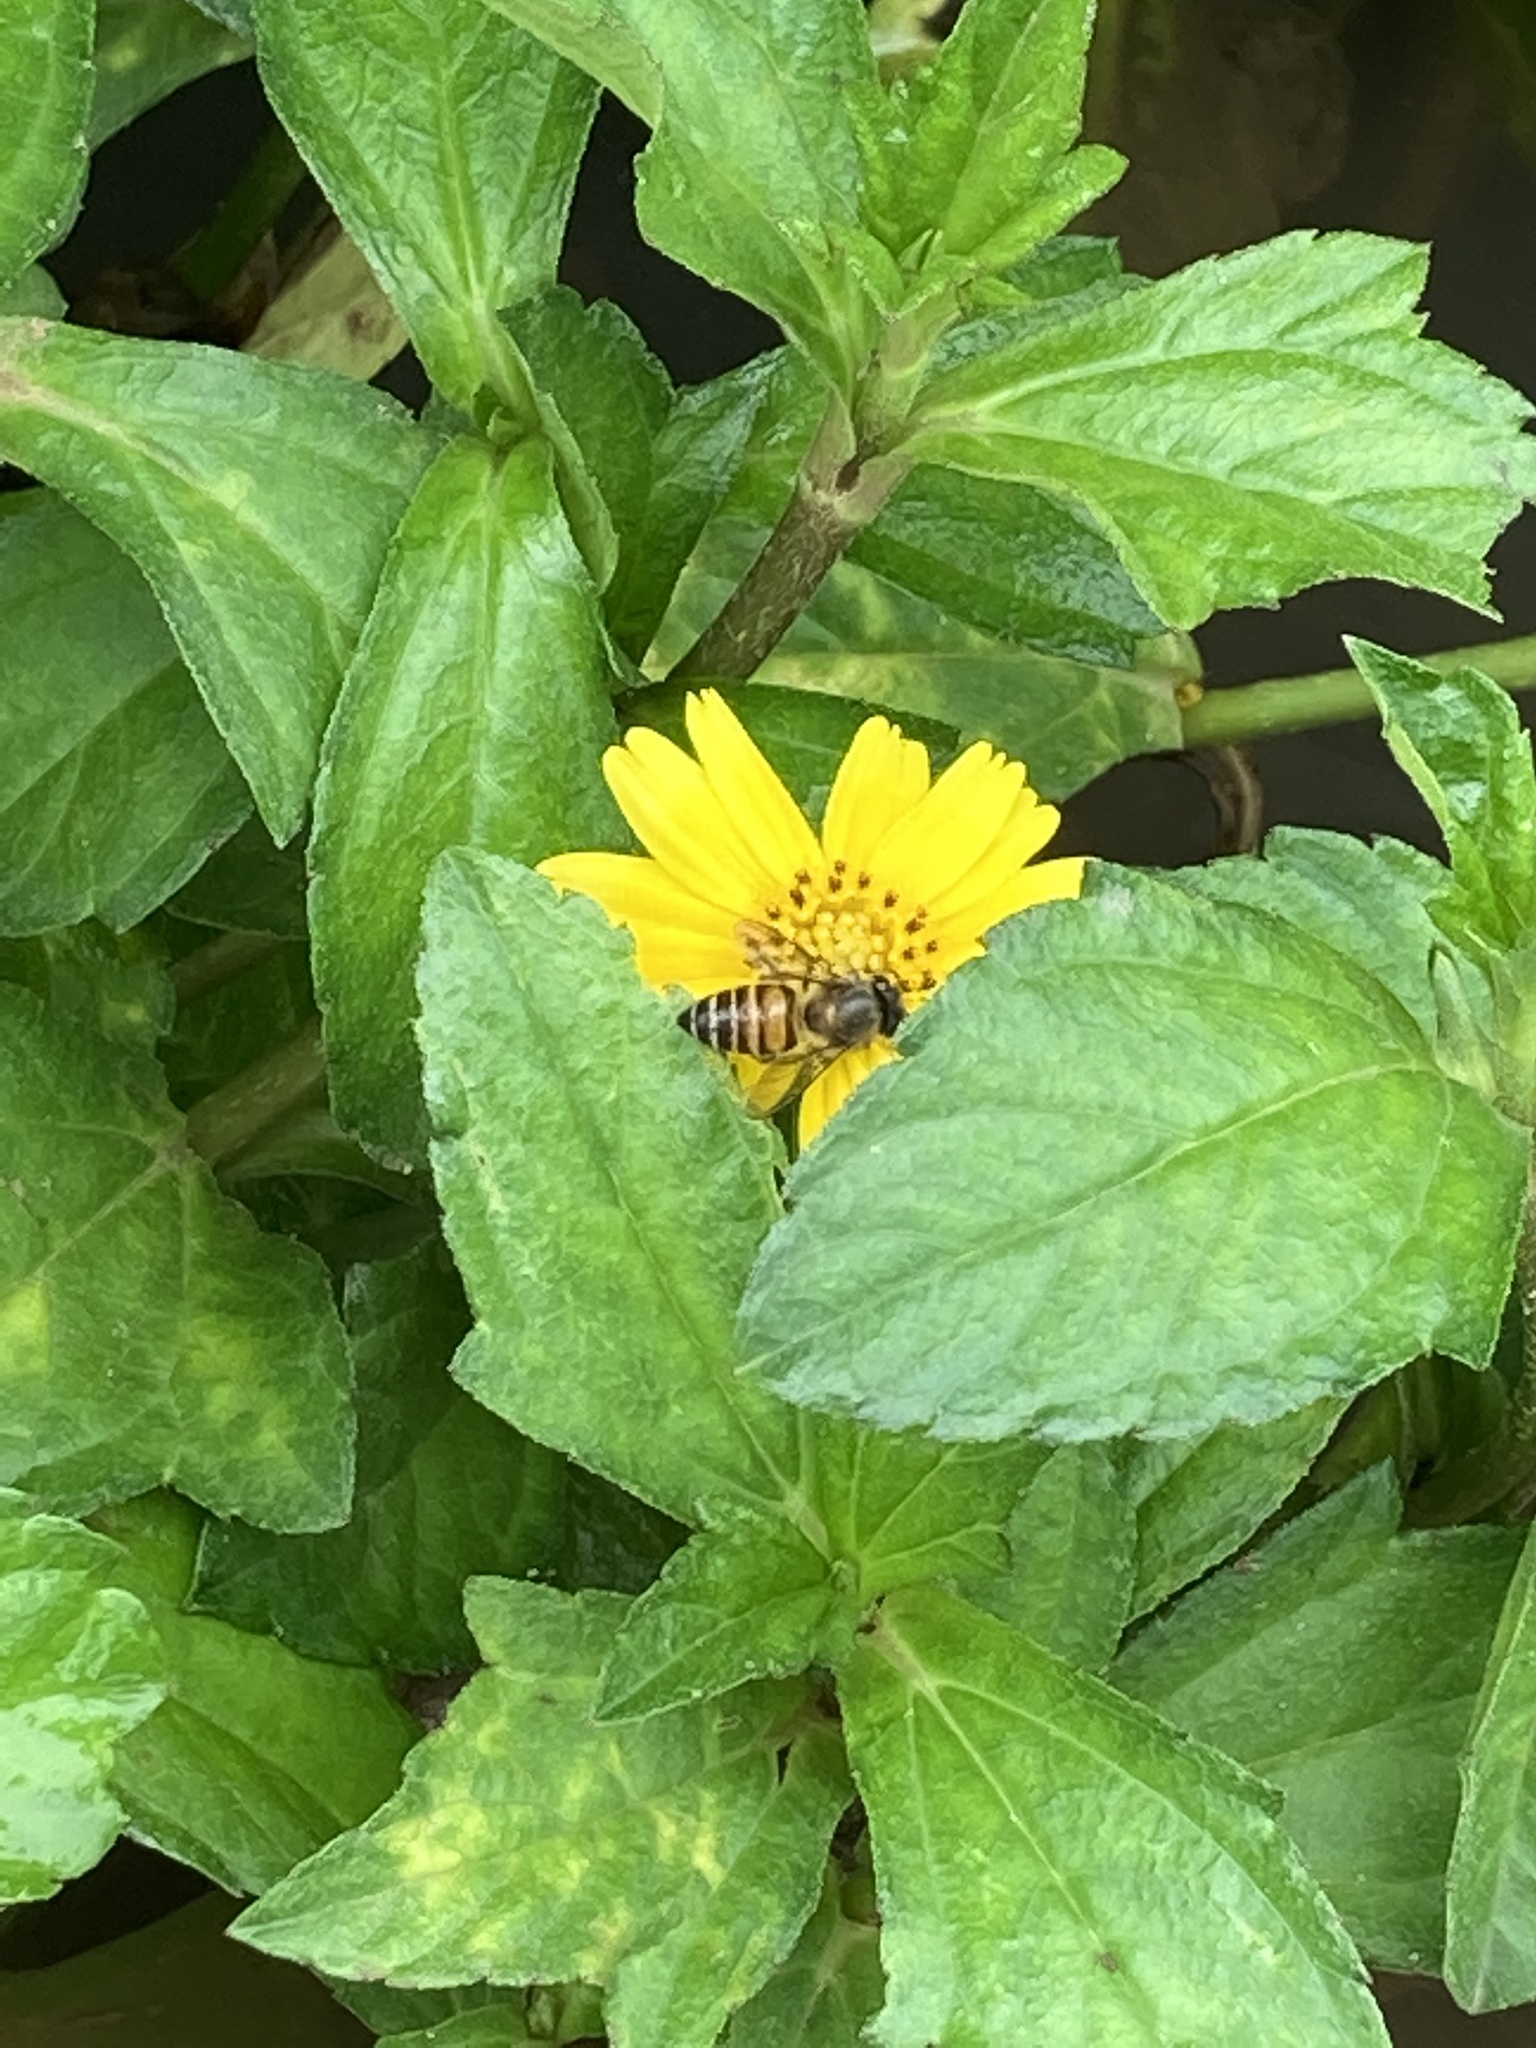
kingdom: Animalia
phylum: Arthropoda
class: Insecta
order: Hymenoptera
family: Apidae
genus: Apis
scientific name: Apis cerana
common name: Honey bee
